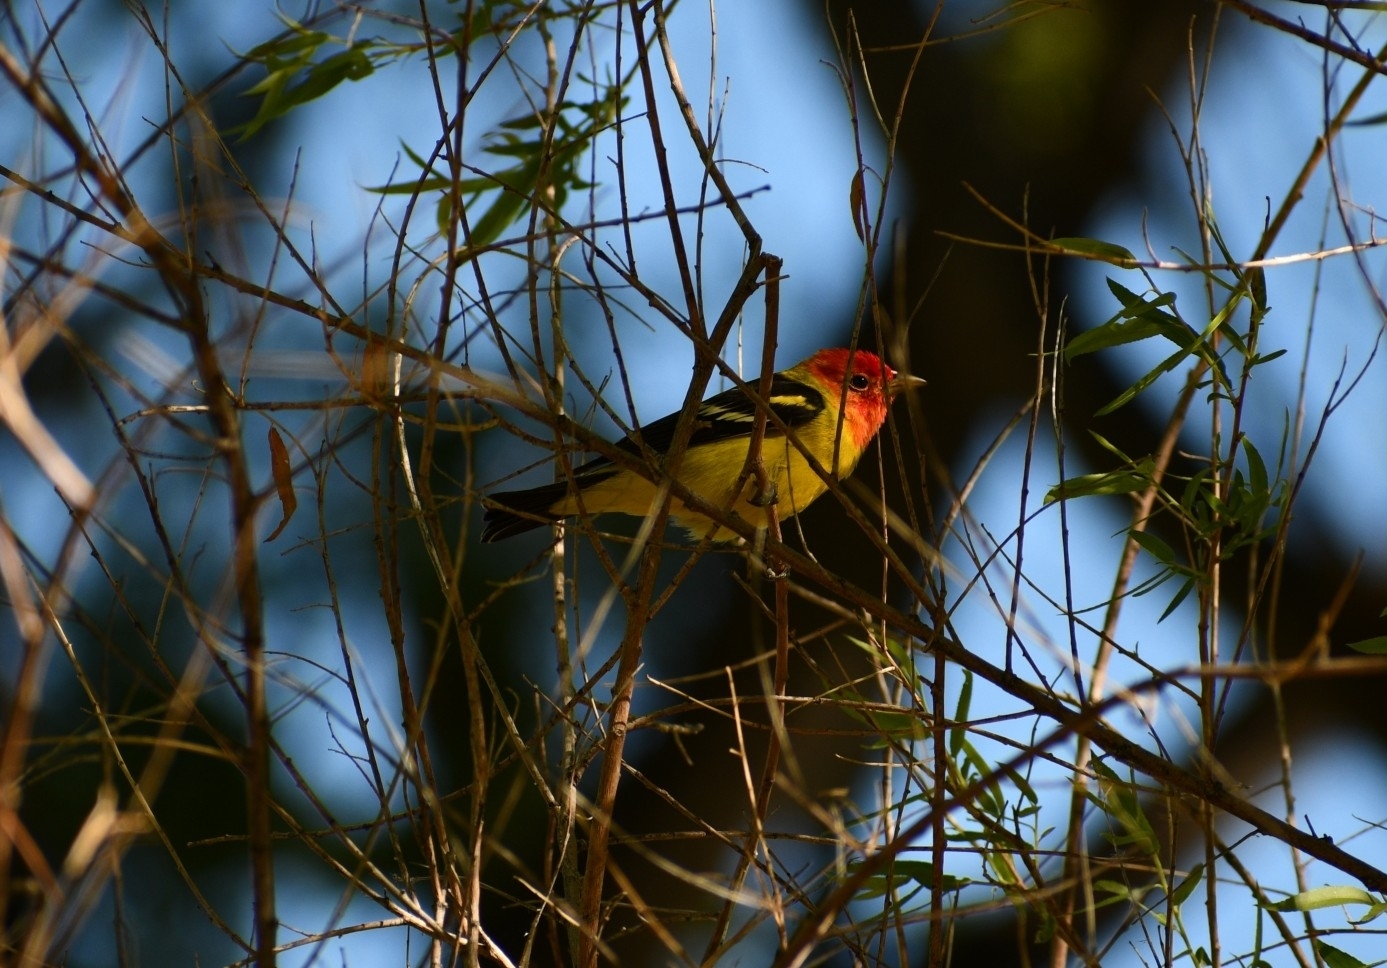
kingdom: Animalia
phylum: Chordata
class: Aves
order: Passeriformes
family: Cardinalidae
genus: Piranga
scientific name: Piranga ludoviciana
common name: Western tanager
